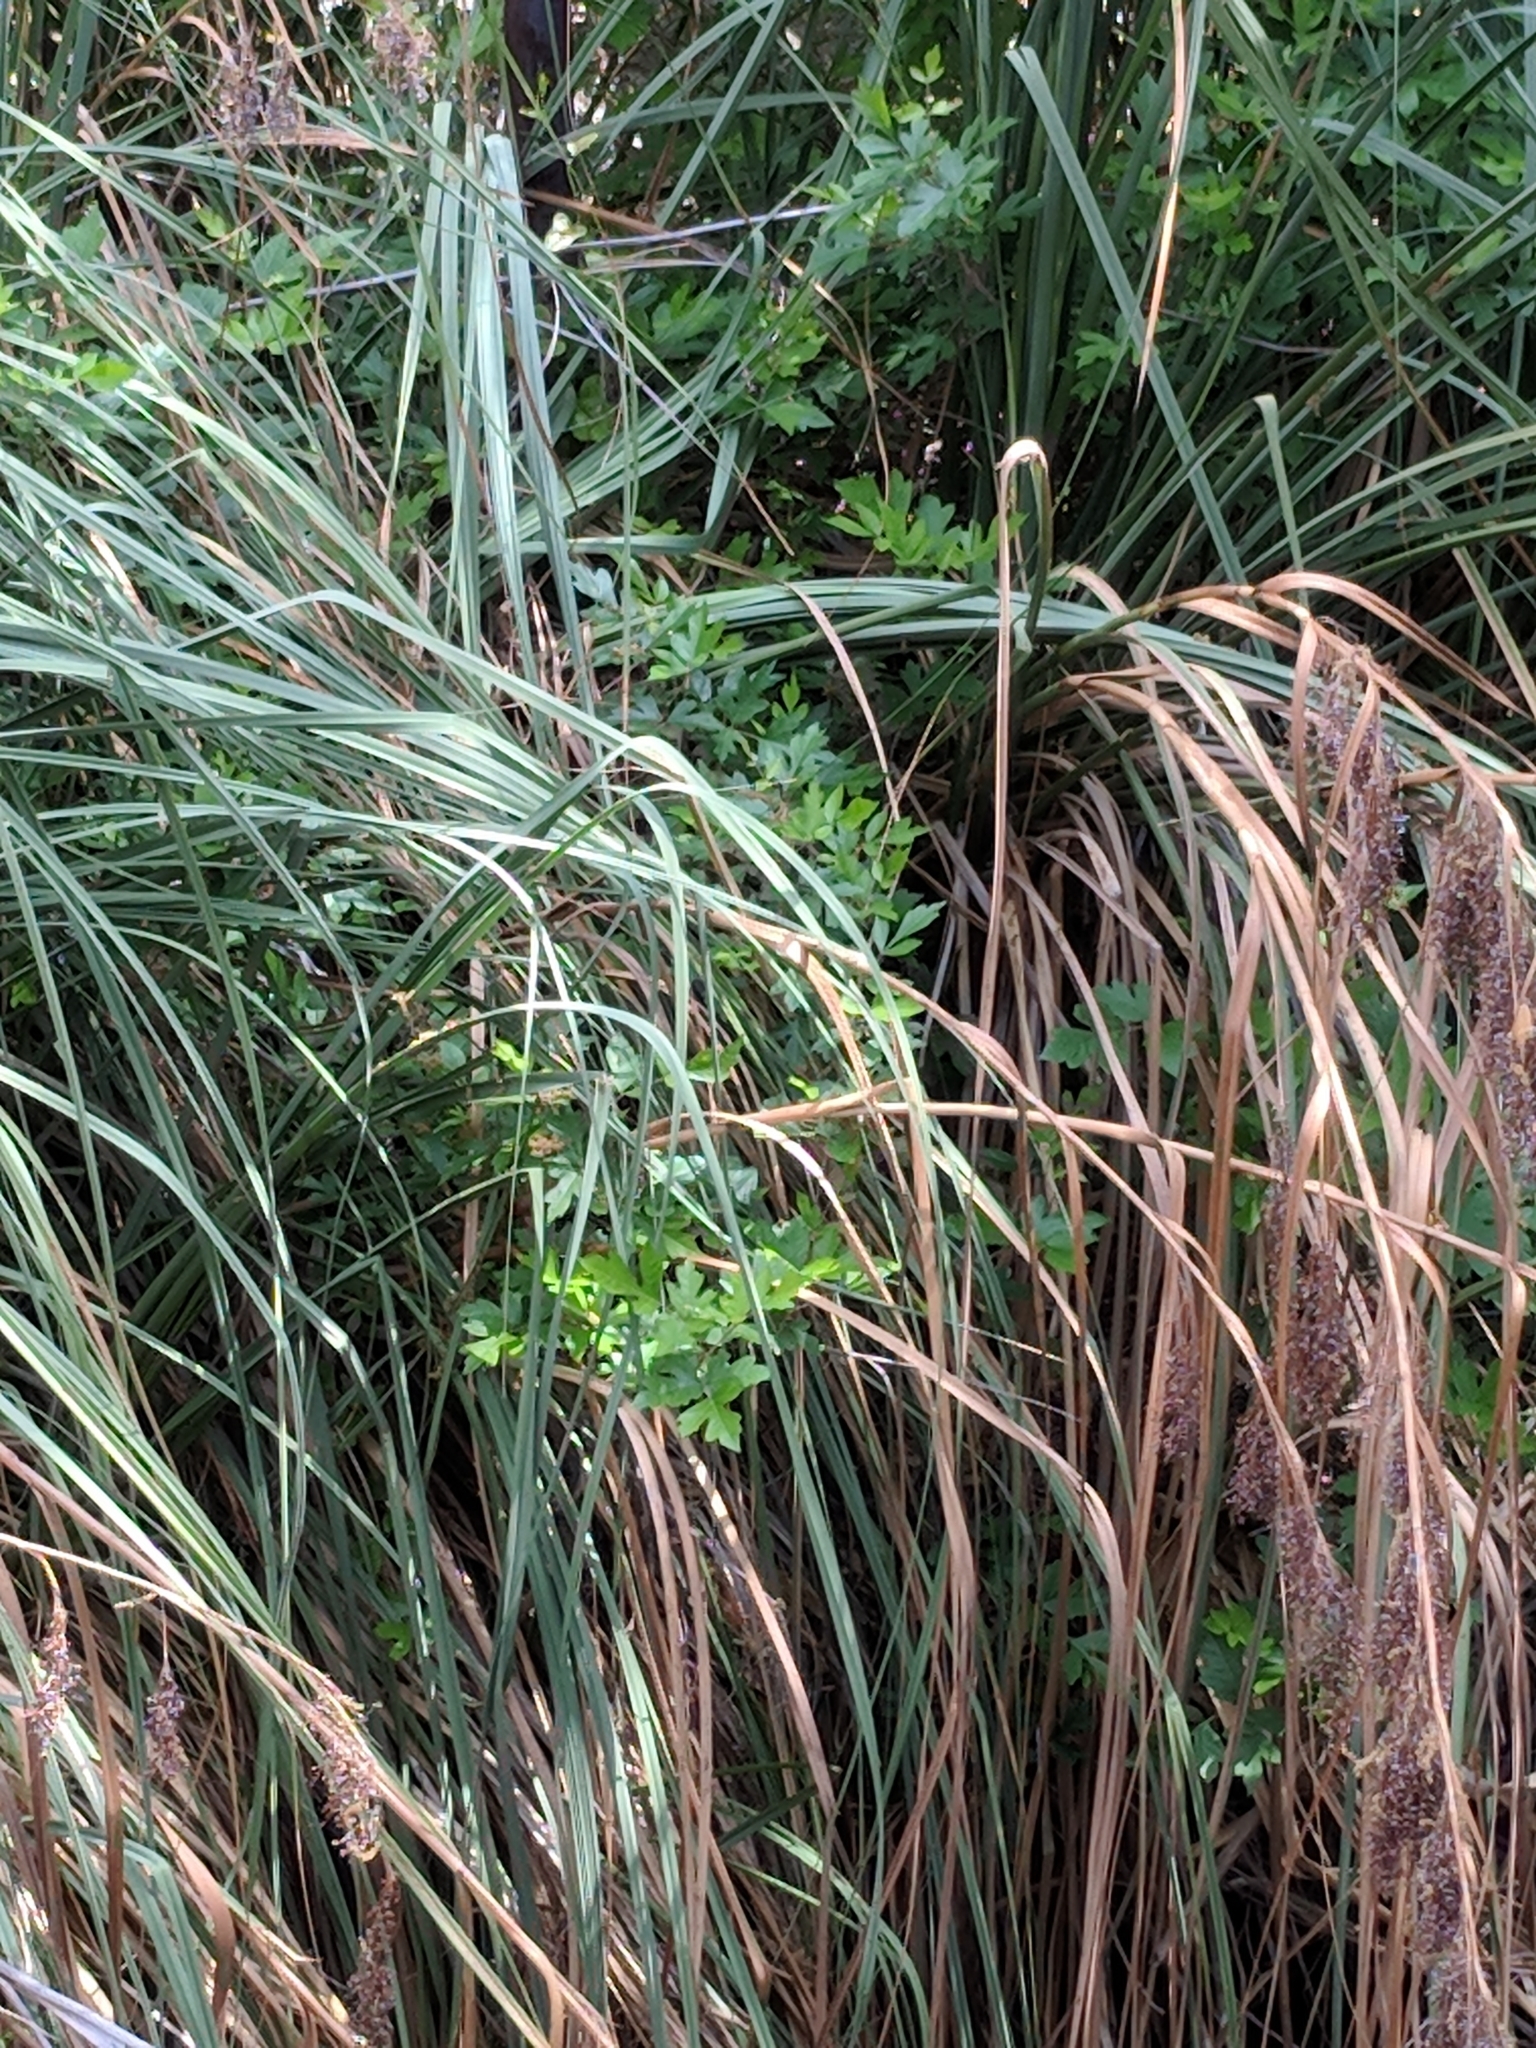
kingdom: Plantae
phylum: Tracheophyta
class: Magnoliopsida
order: Sapindales
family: Anacardiaceae
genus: Toxicodendron
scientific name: Toxicodendron radicans
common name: Poison ivy
